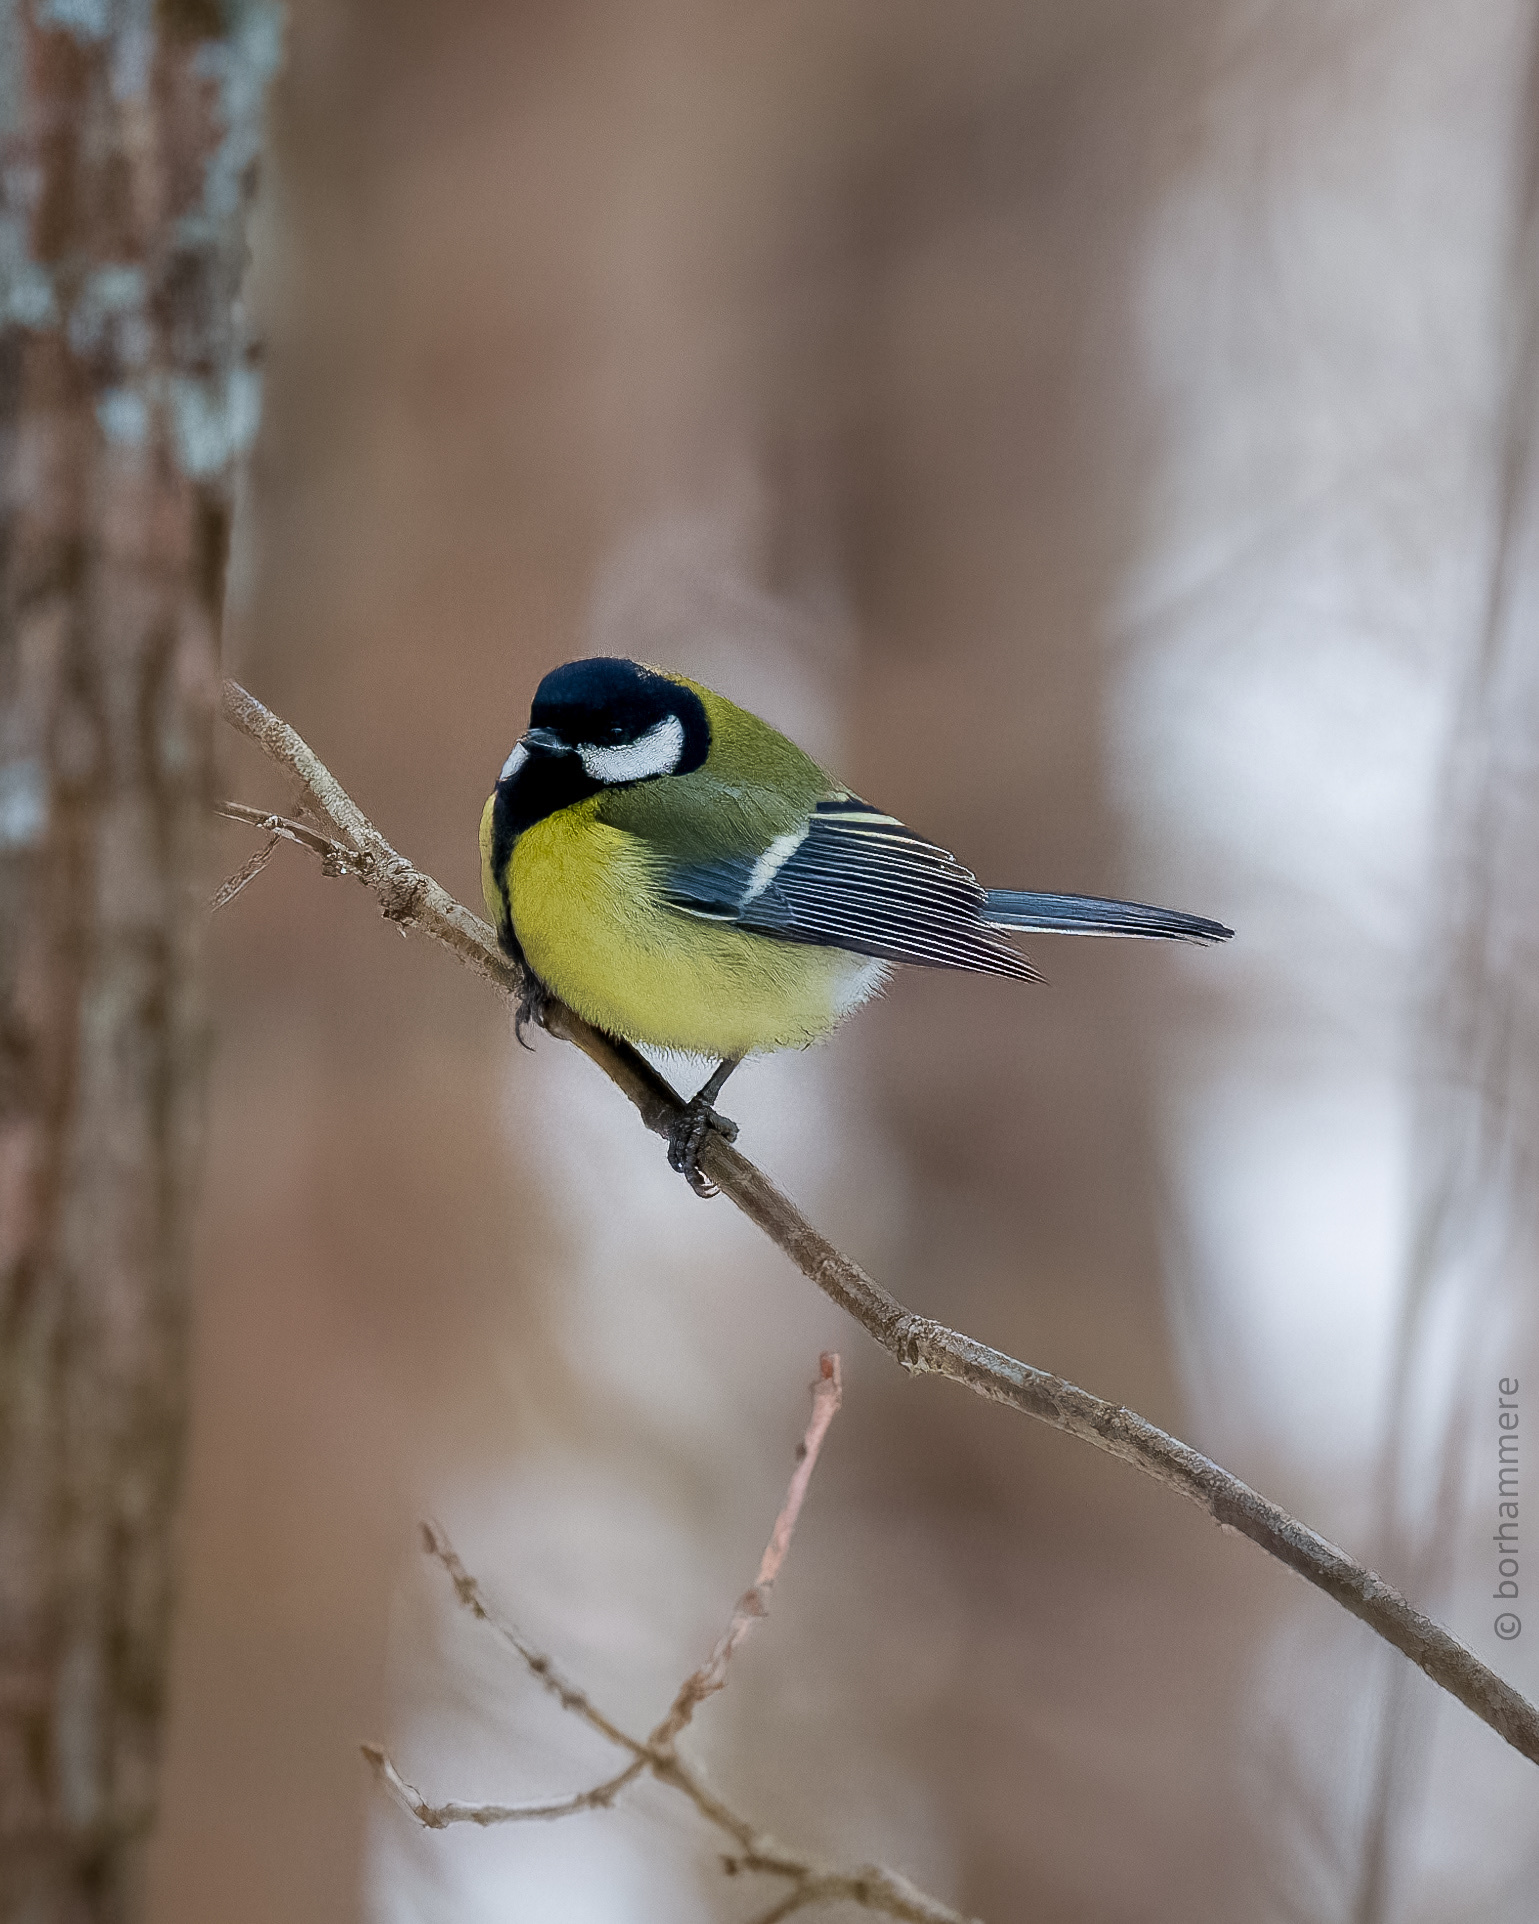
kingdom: Animalia
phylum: Chordata
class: Aves
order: Passeriformes
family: Paridae
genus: Parus
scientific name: Parus major
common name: Great tit
